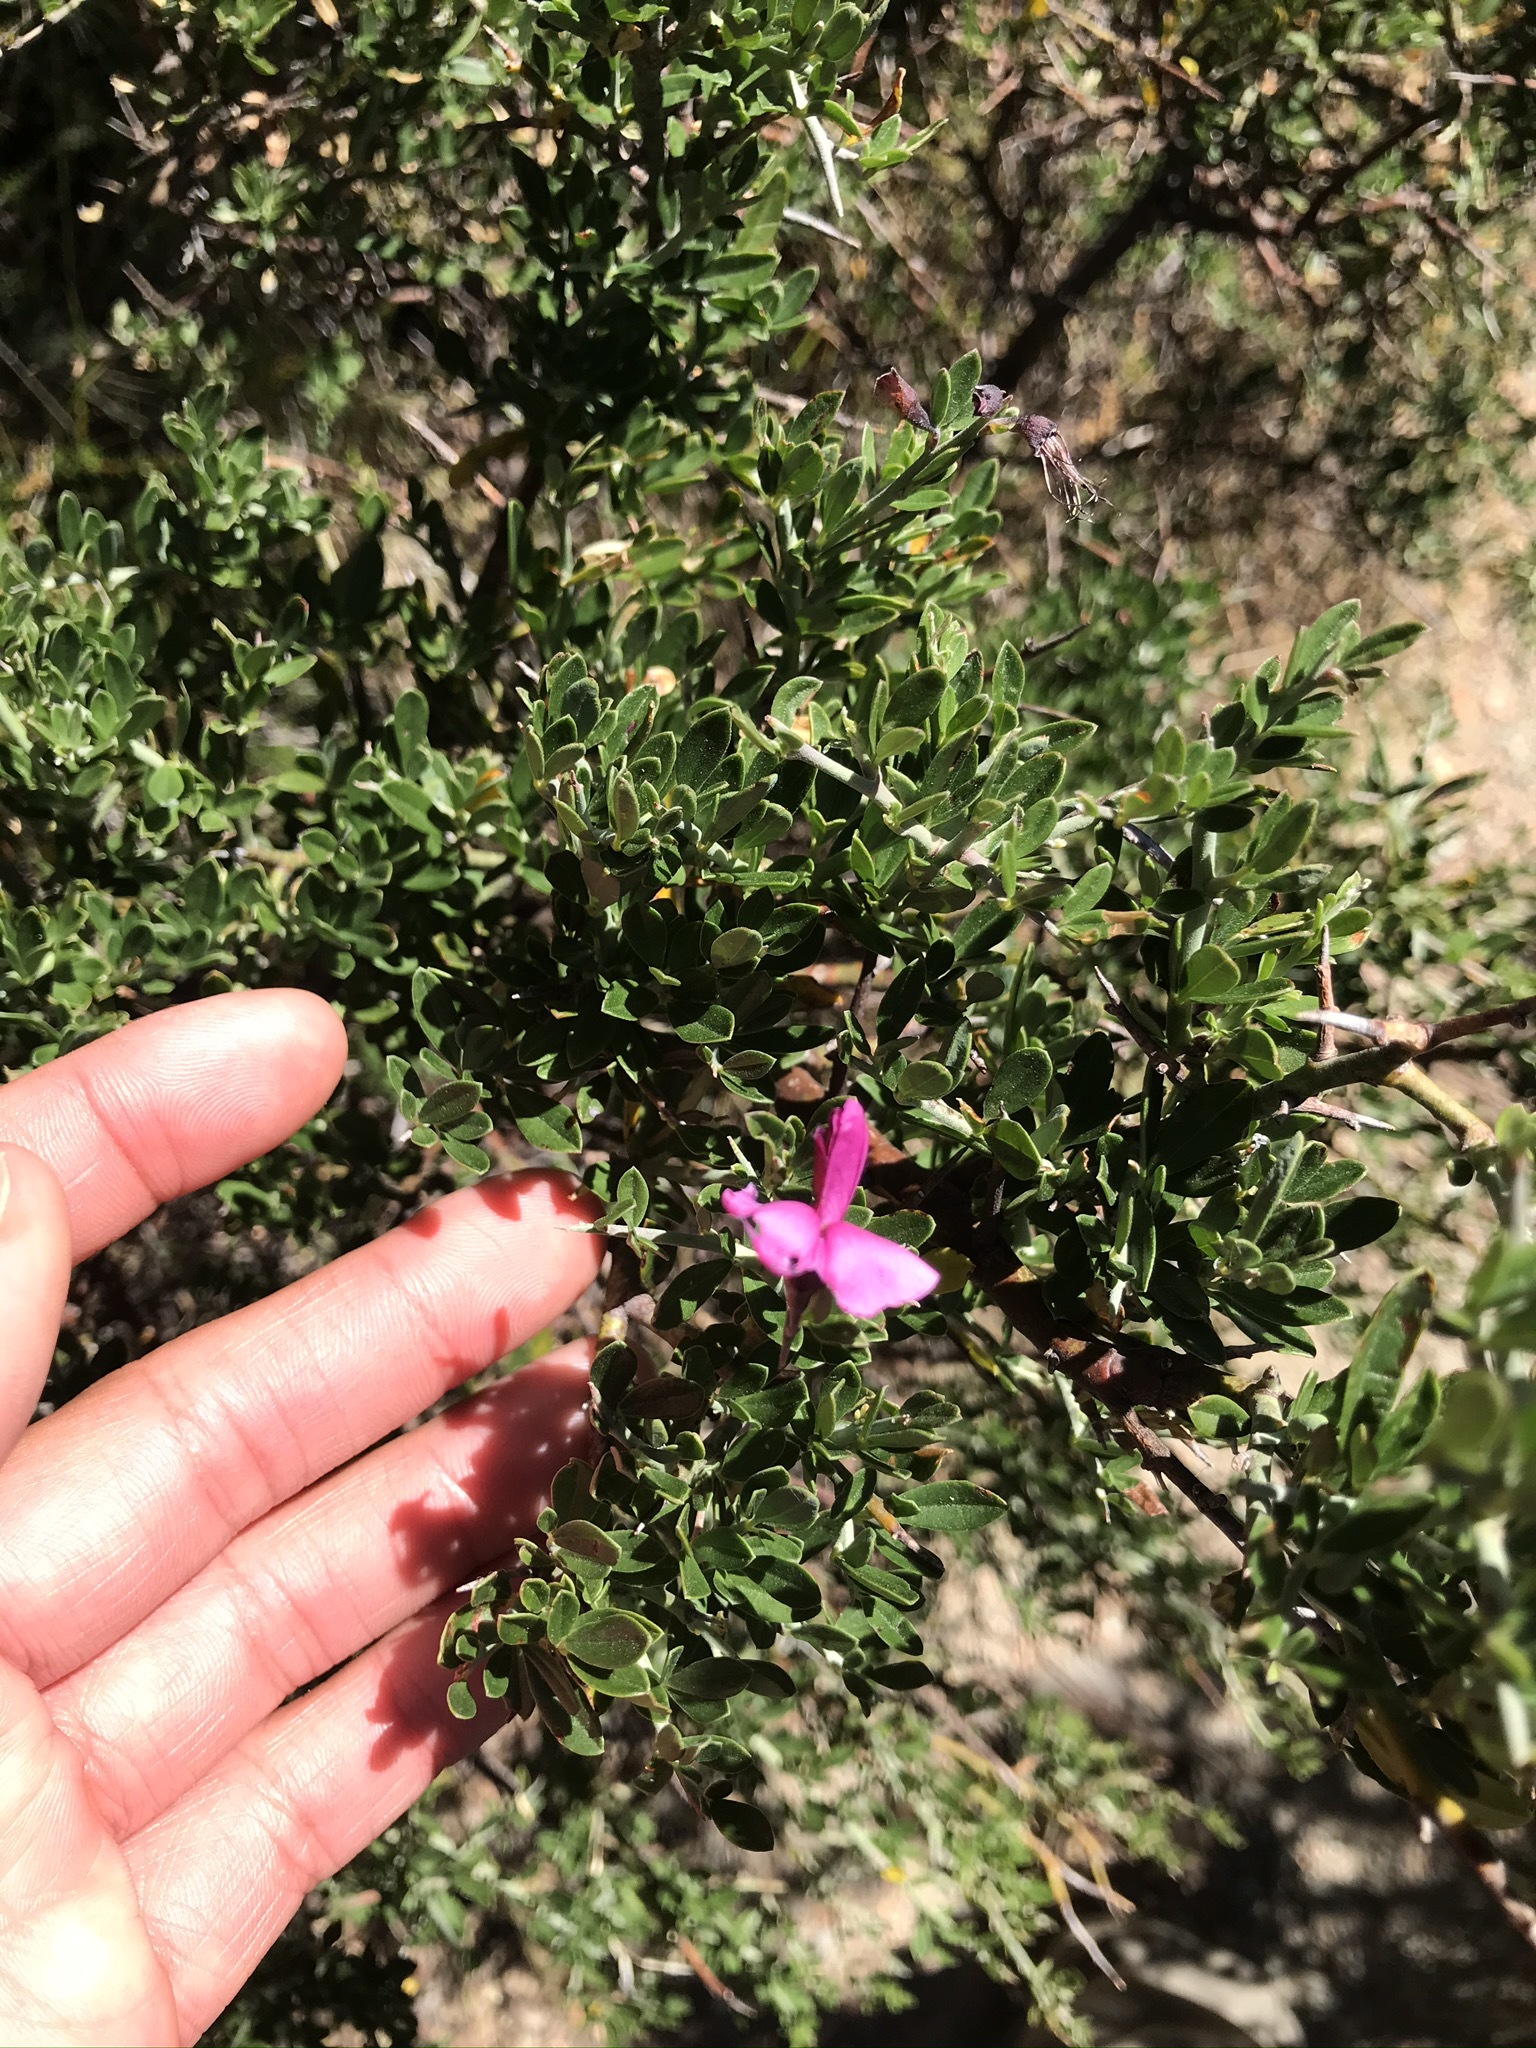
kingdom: Plantae
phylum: Tracheophyta
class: Magnoliopsida
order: Fabales
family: Fabaceae
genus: Pickeringia
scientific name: Pickeringia montana
